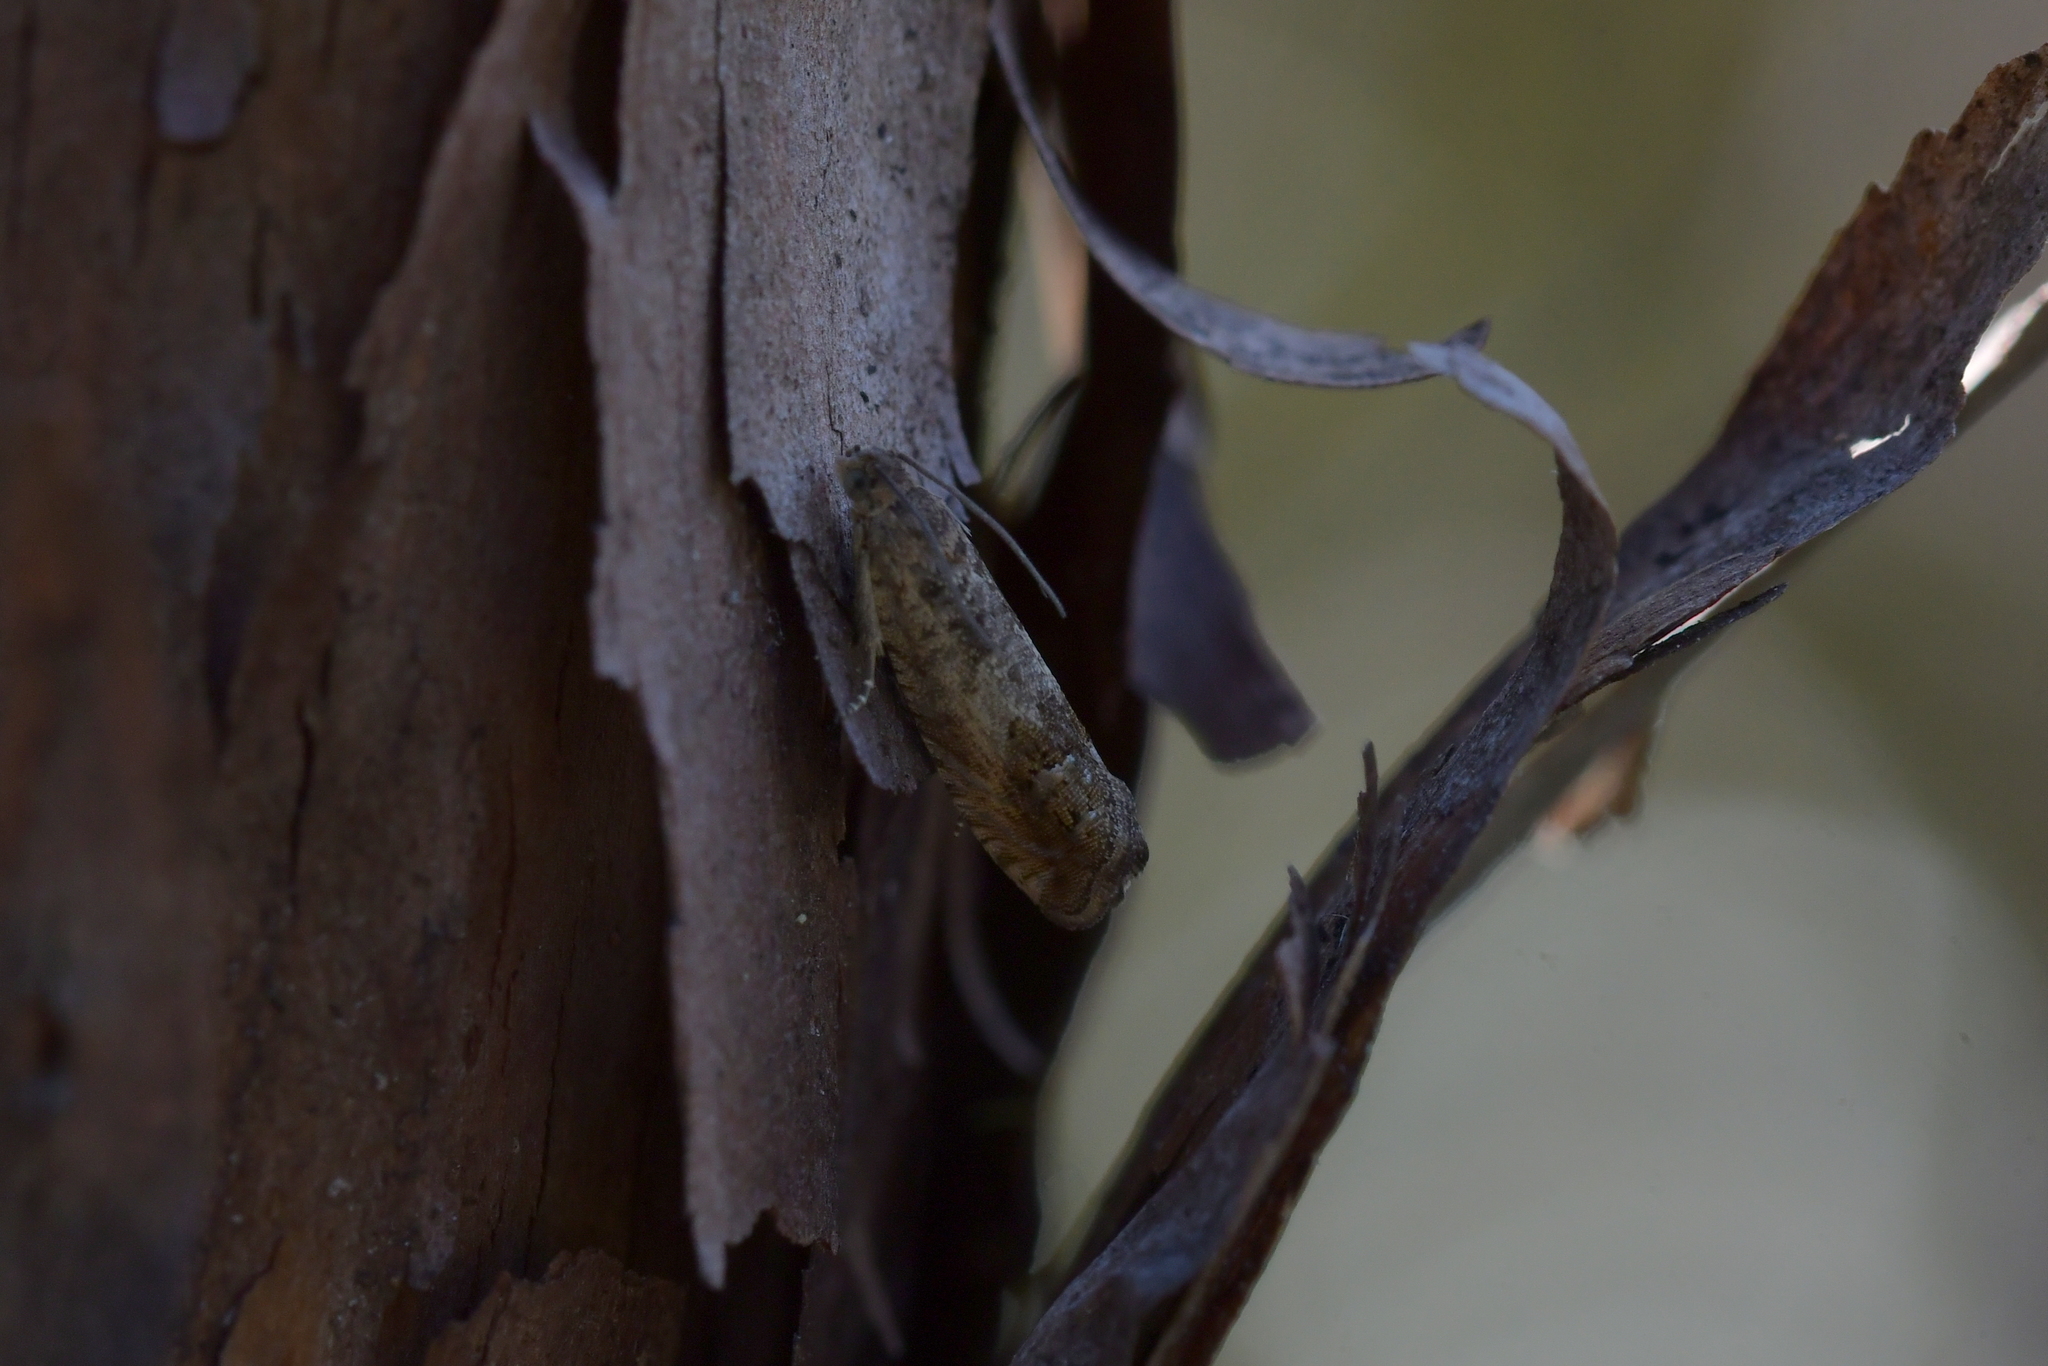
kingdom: Animalia
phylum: Arthropoda
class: Insecta
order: Lepidoptera
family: Tortricidae
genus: Cydia
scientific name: Cydia succedana
